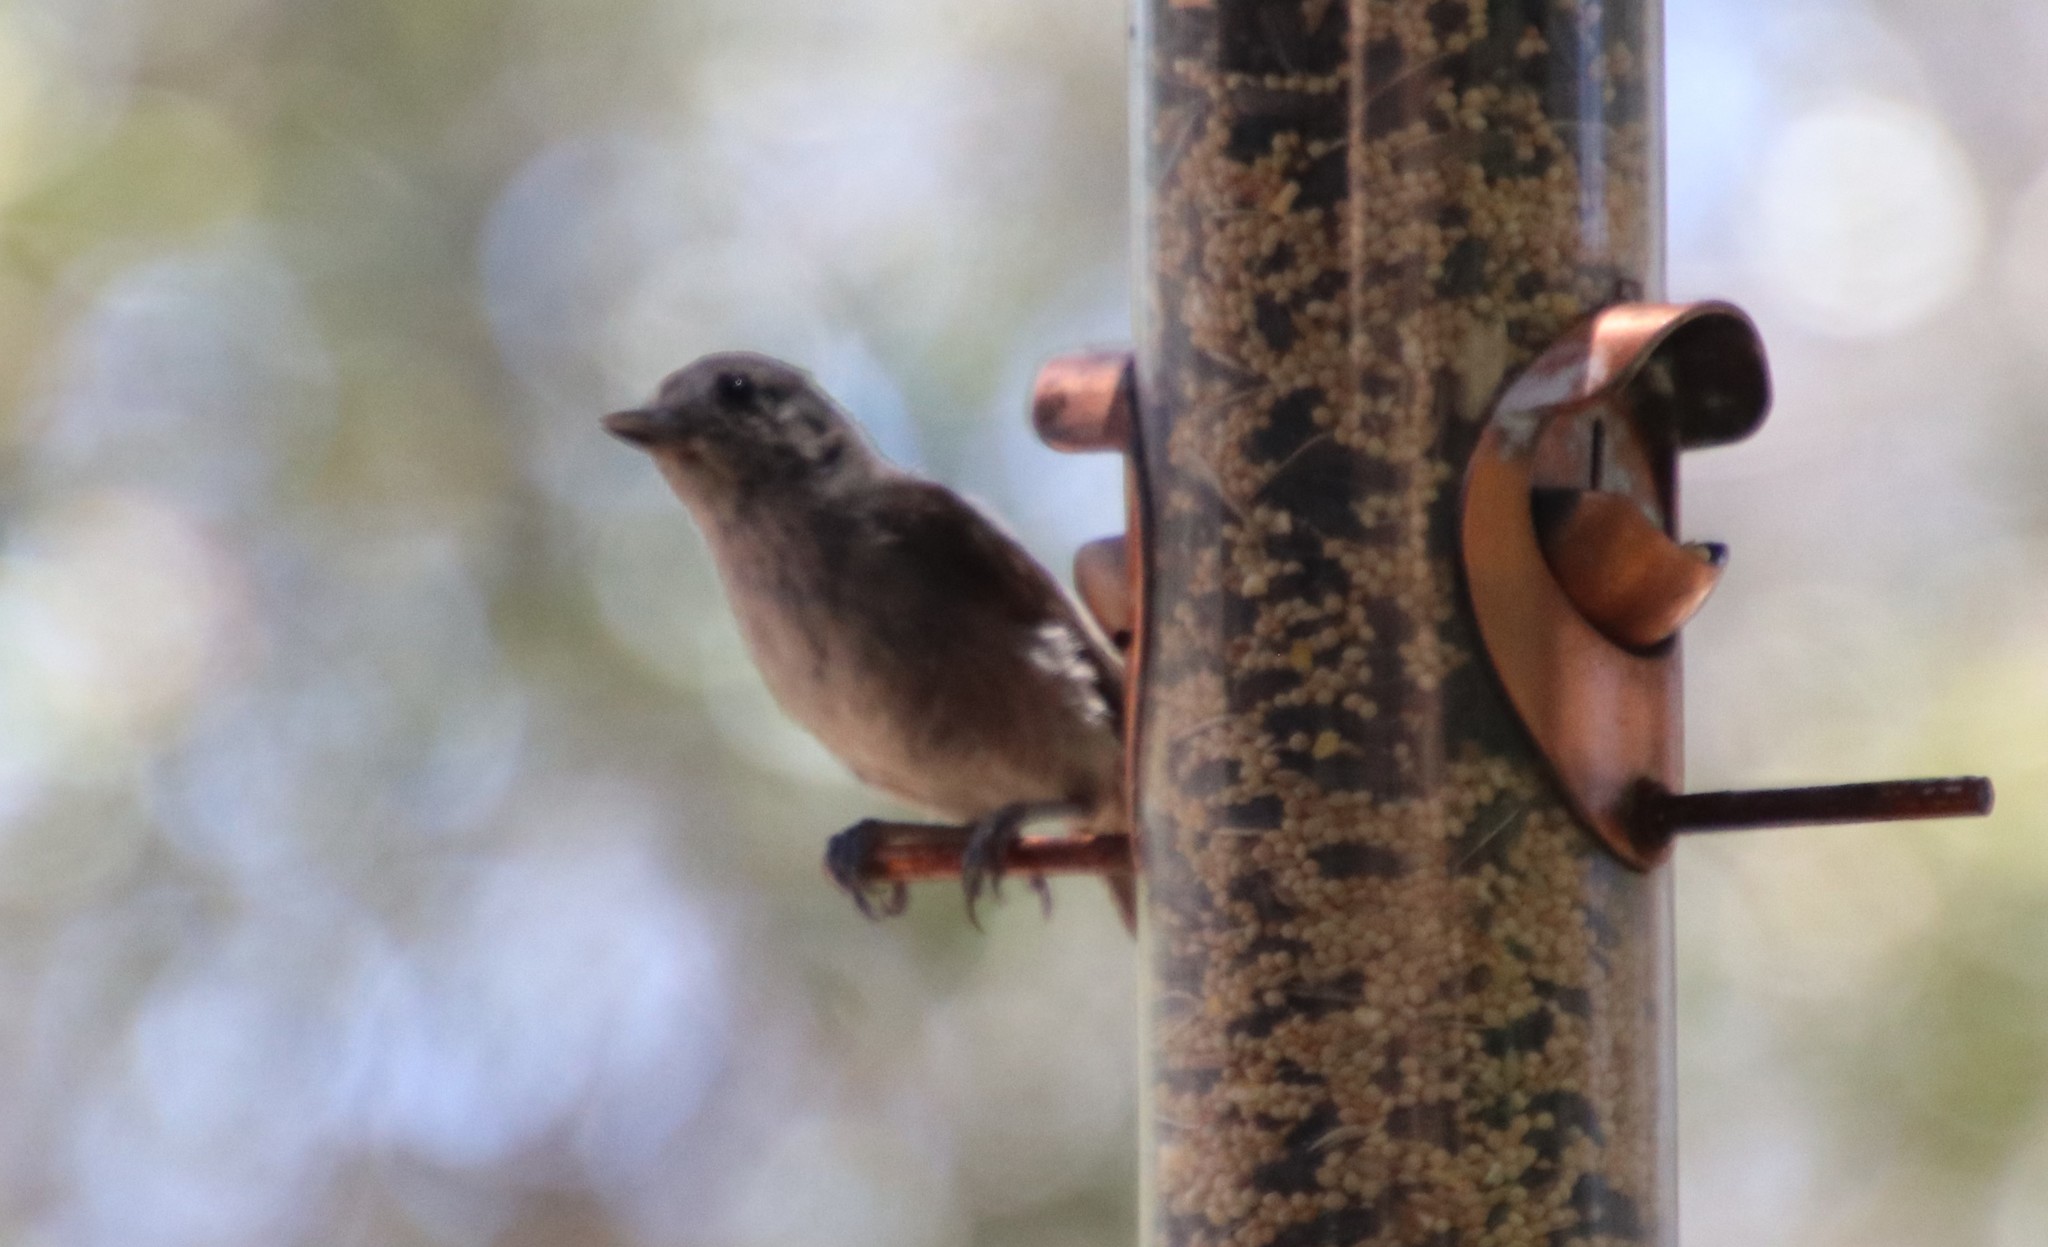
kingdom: Animalia
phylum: Chordata
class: Aves
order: Passeriformes
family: Paridae
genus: Baeolophus
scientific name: Baeolophus inornatus
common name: Oak titmouse
